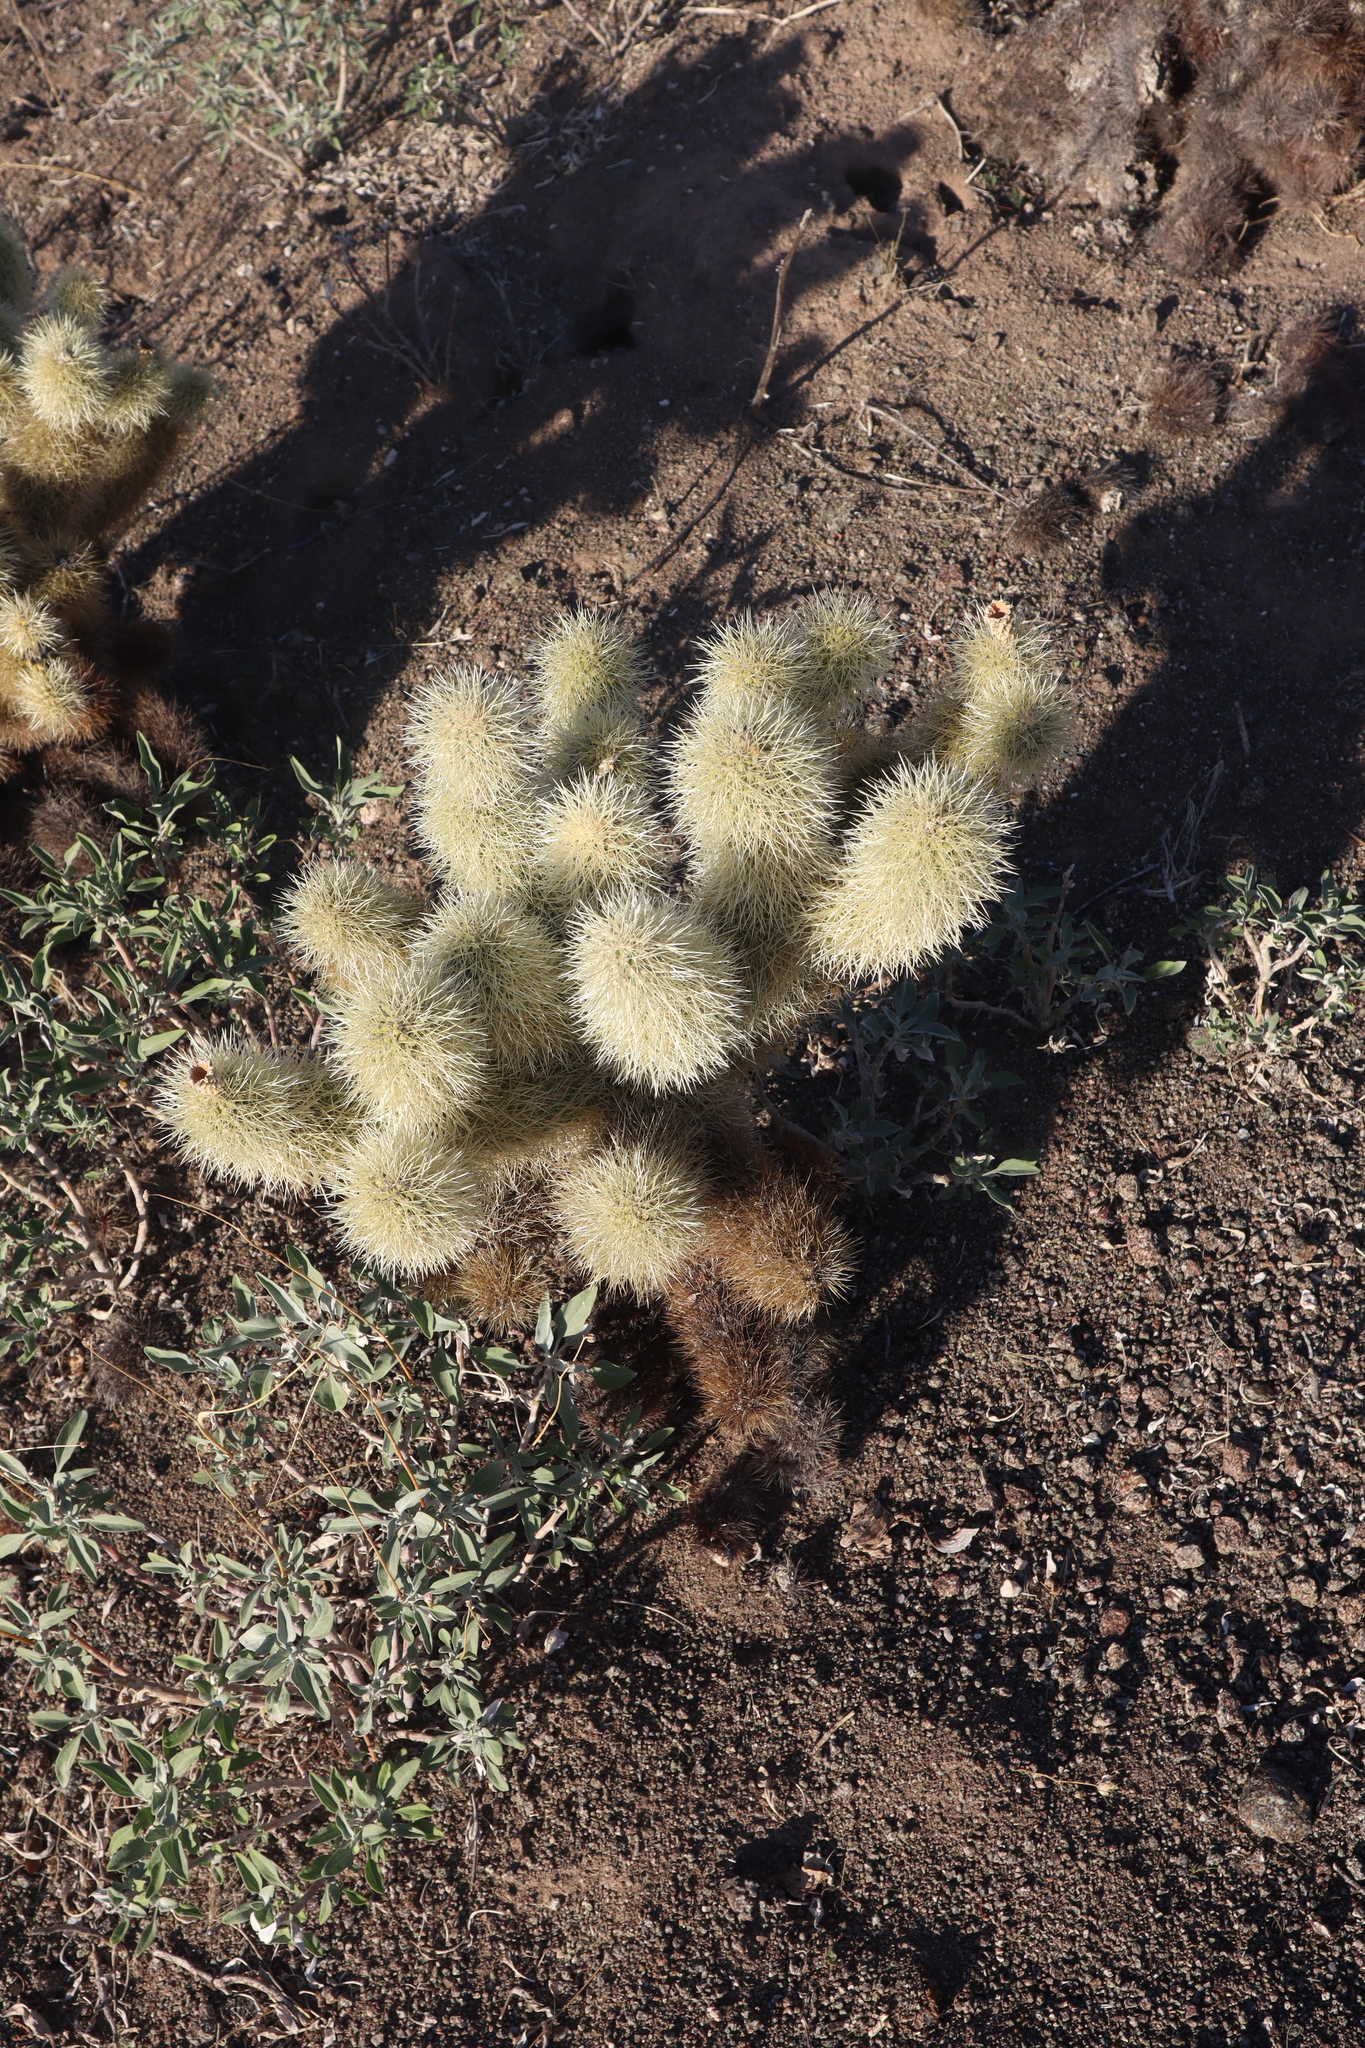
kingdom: Plantae
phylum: Tracheophyta
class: Magnoliopsida
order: Caryophyllales
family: Cactaceae
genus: Cylindropuntia
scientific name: Cylindropuntia fosbergii
